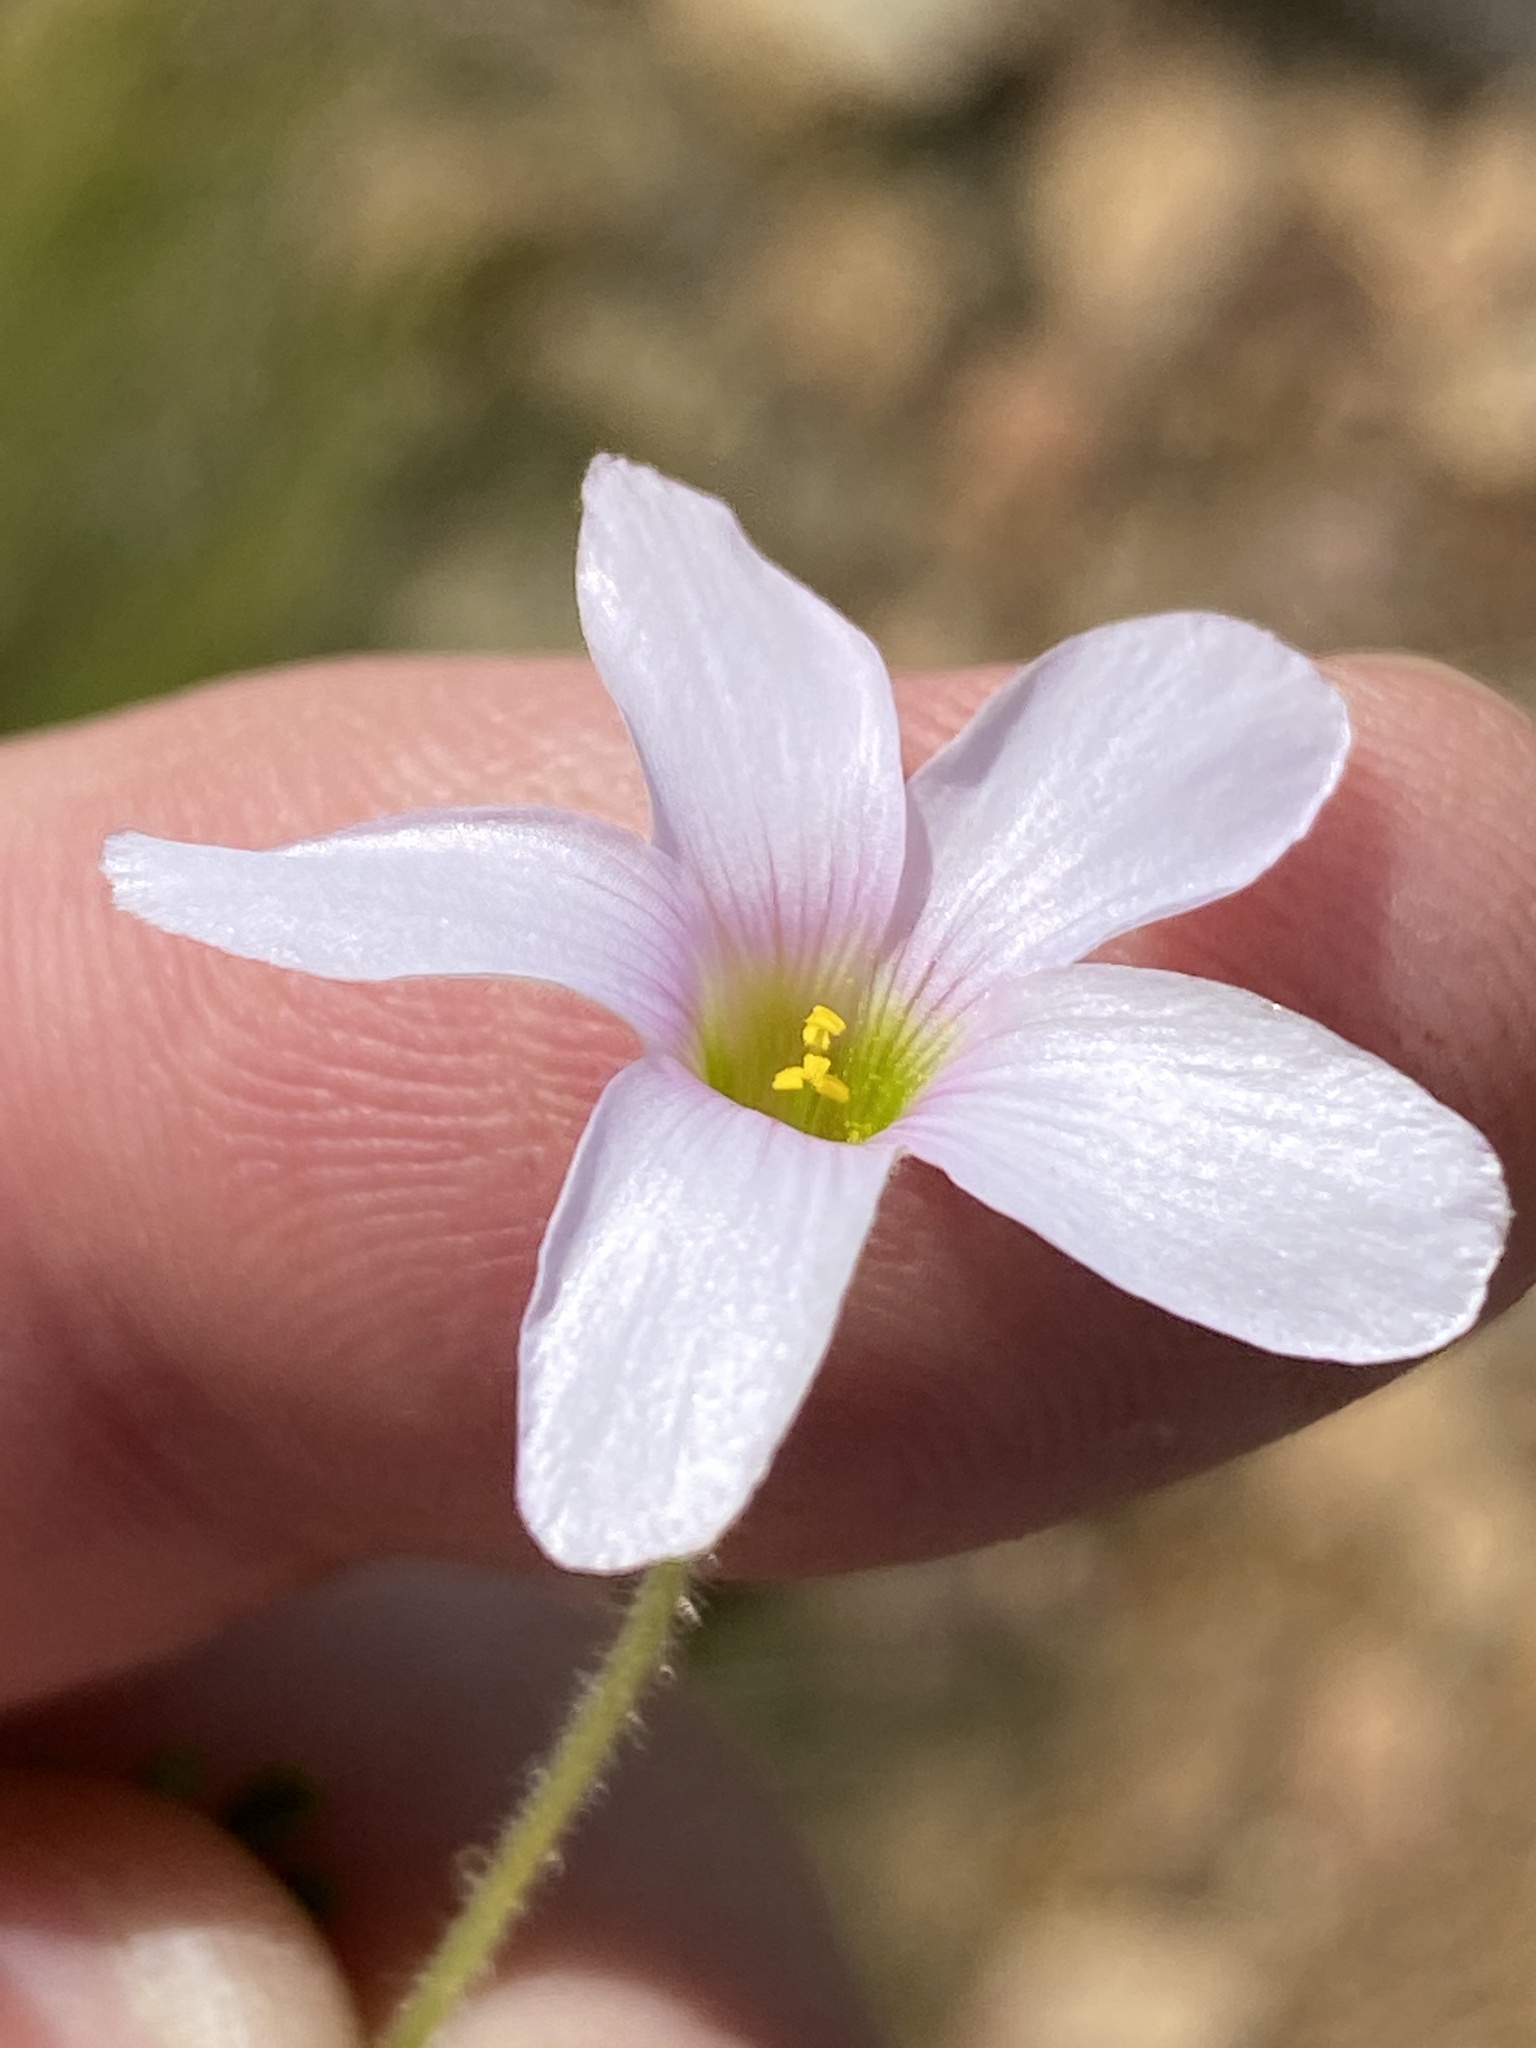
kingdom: Plantae
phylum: Tracheophyta
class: Magnoliopsida
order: Oxalidales
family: Oxalidaceae
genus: Oxalis
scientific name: Oxalis ebracteata
